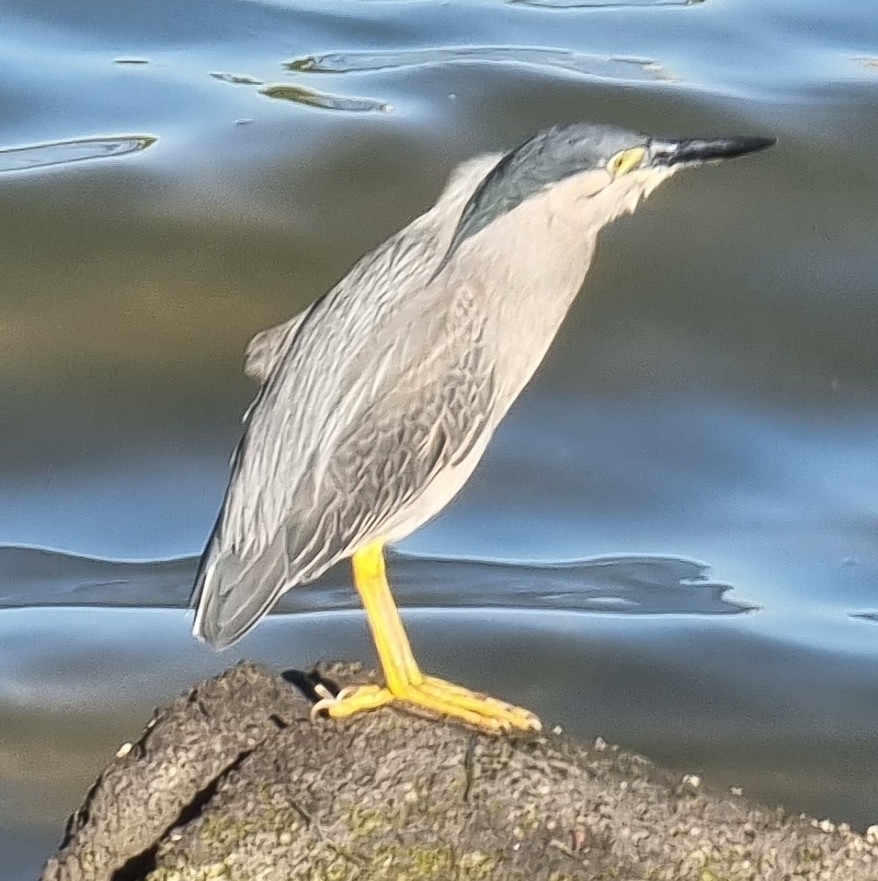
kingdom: Animalia
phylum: Chordata
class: Aves
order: Pelecaniformes
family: Ardeidae
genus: Butorides
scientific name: Butorides striata
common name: Striated heron
